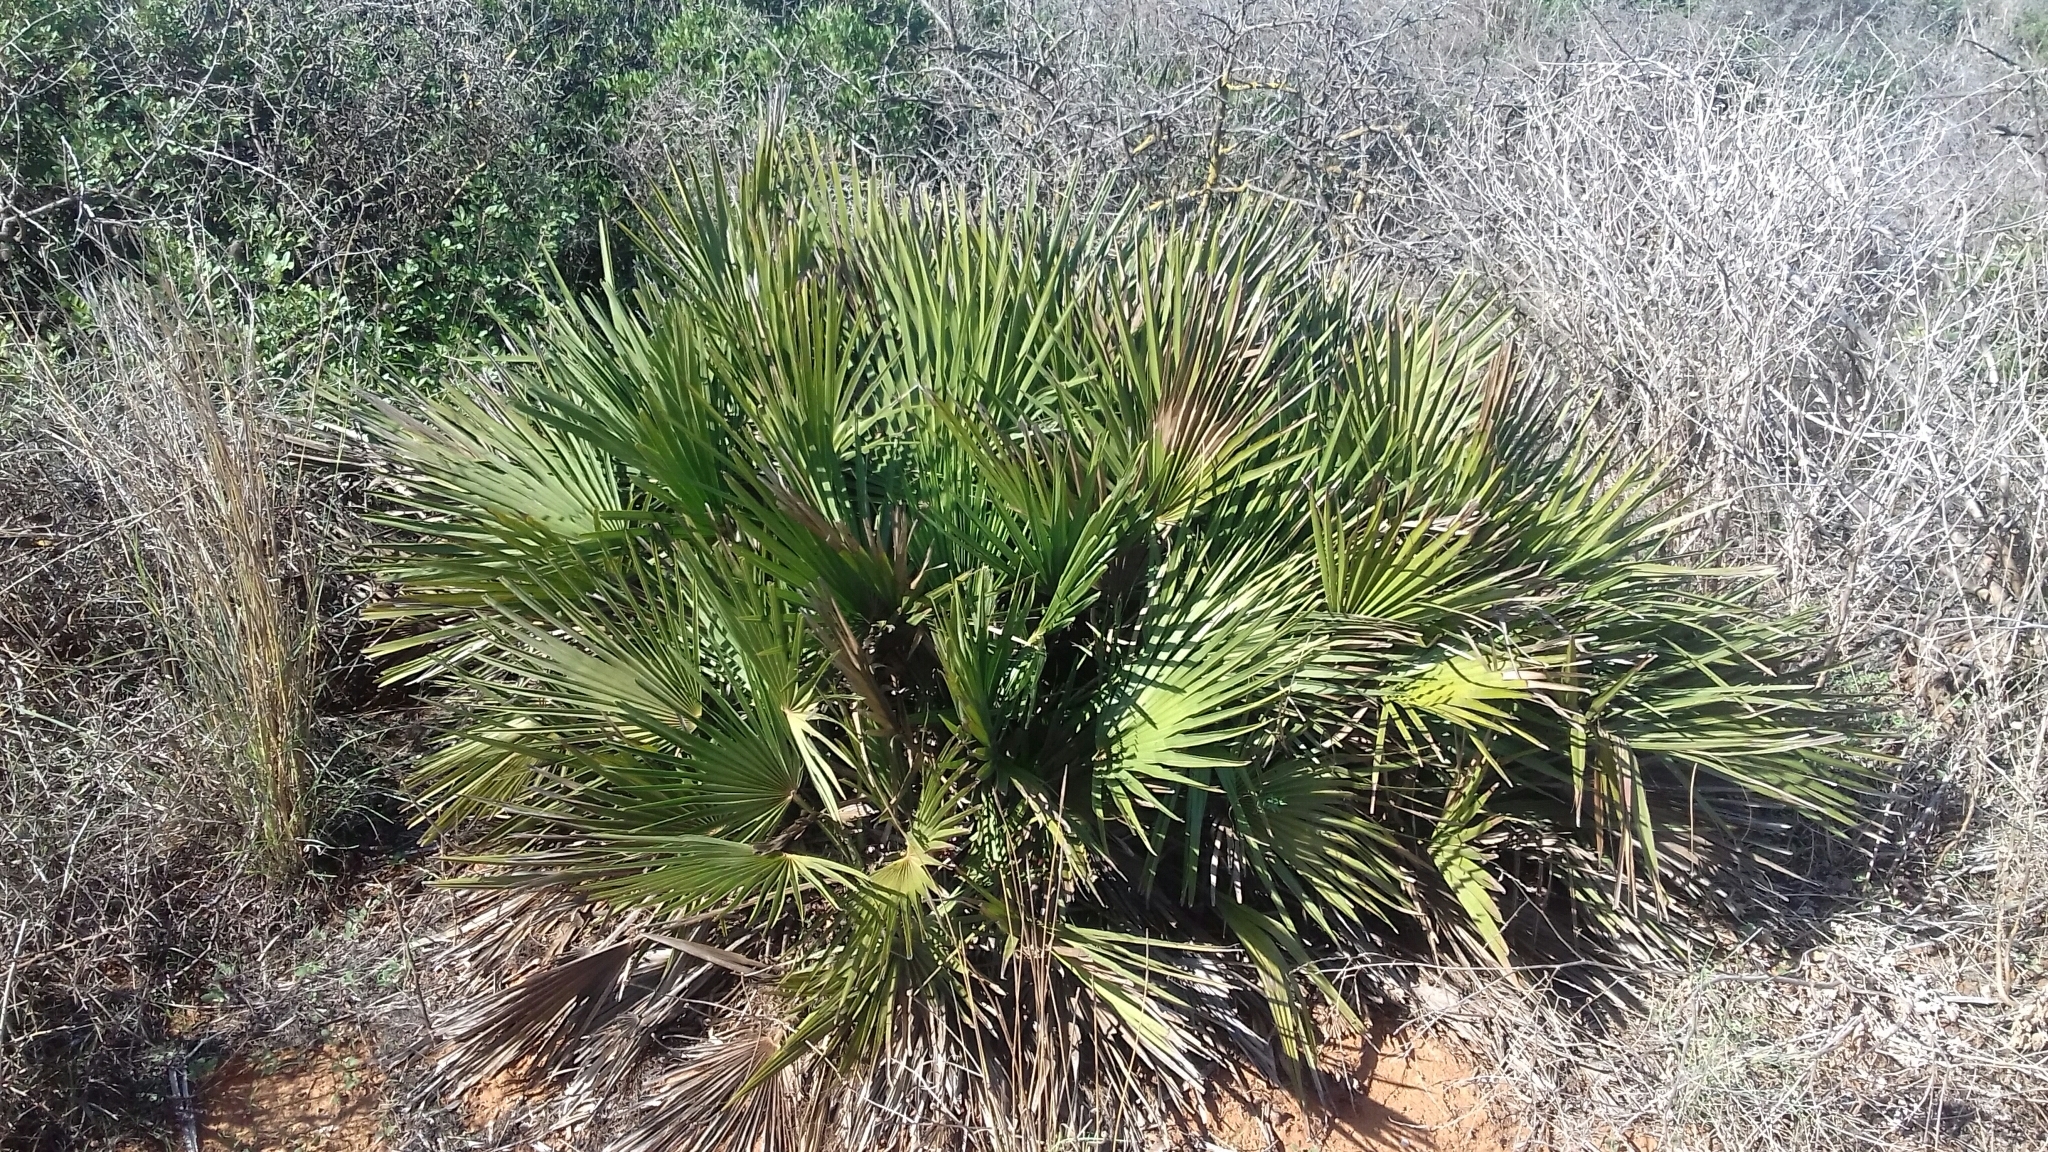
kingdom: Plantae
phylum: Tracheophyta
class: Liliopsida
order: Arecales
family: Arecaceae
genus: Chamaerops
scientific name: Chamaerops humilis
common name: Dwarf fan palm
